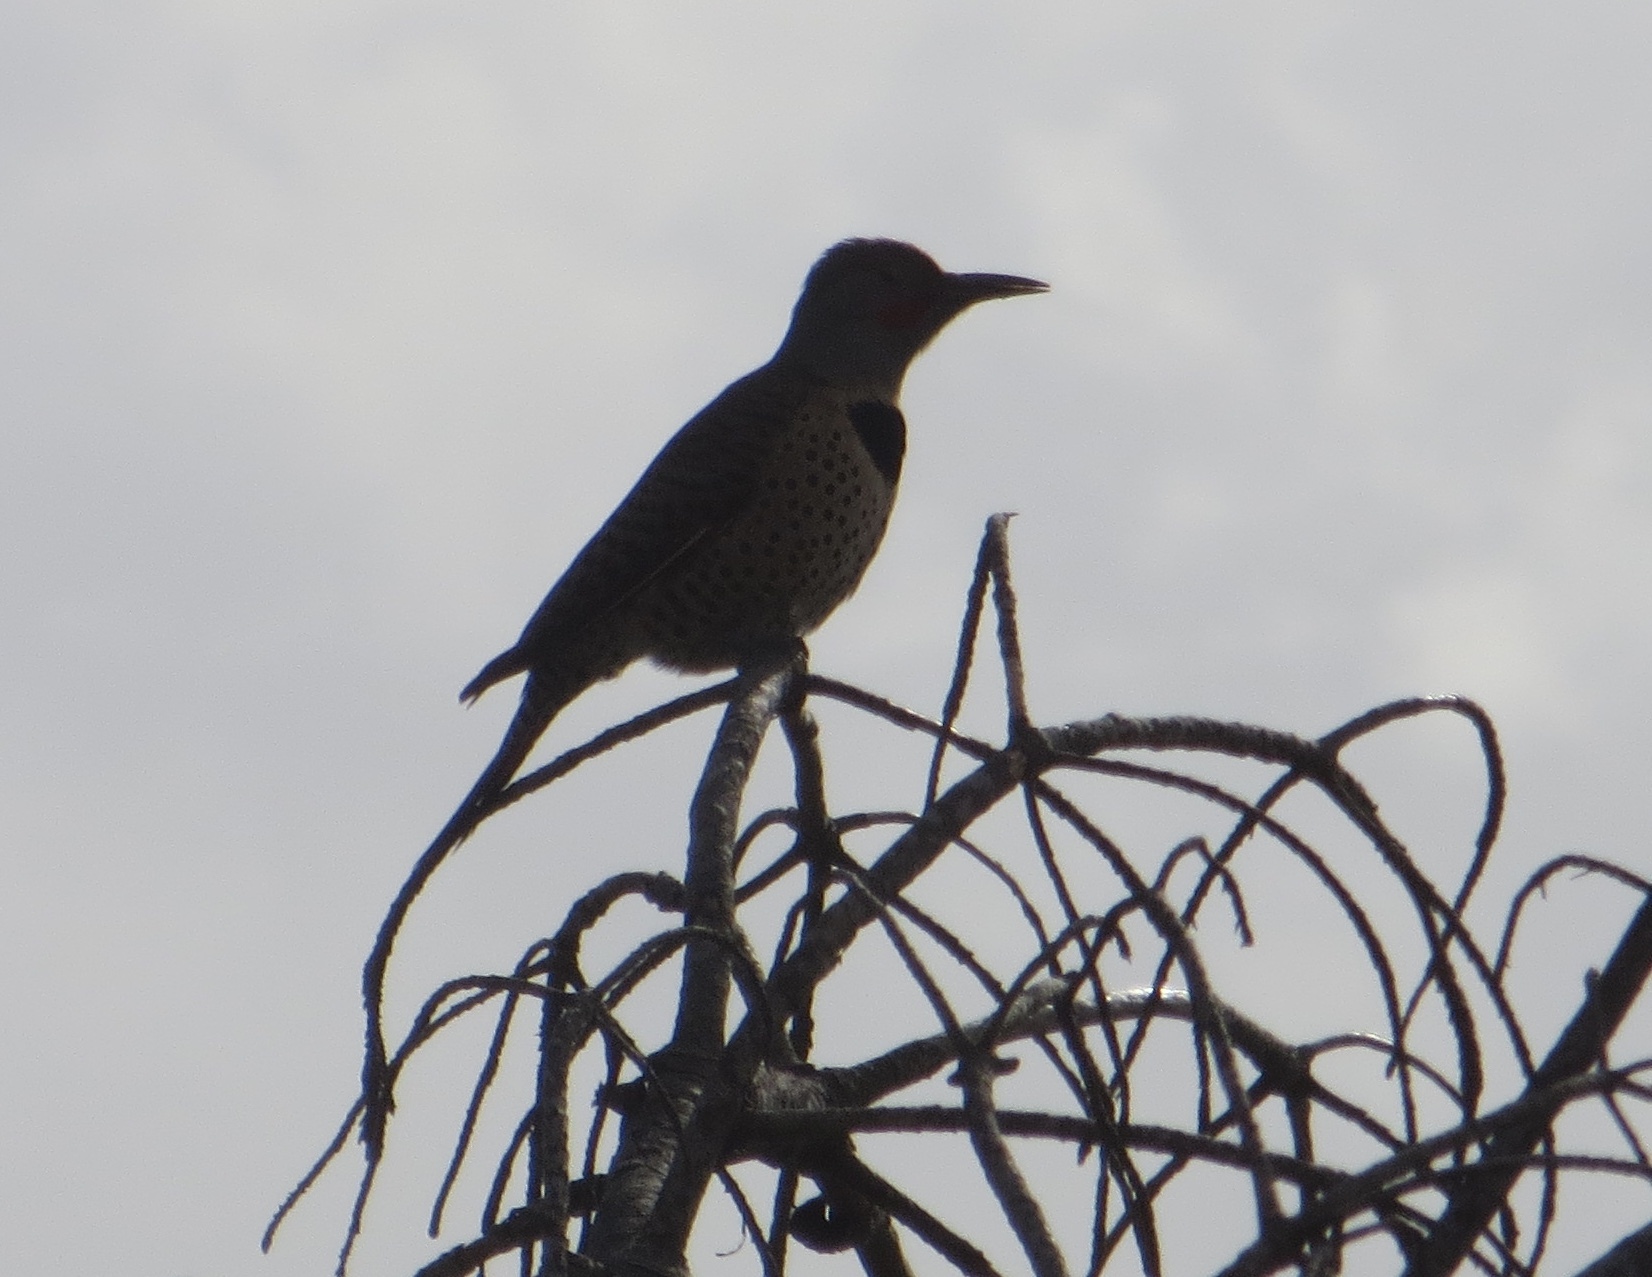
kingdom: Animalia
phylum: Chordata
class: Aves
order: Piciformes
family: Picidae
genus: Colaptes
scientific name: Colaptes auratus
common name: Northern flicker
